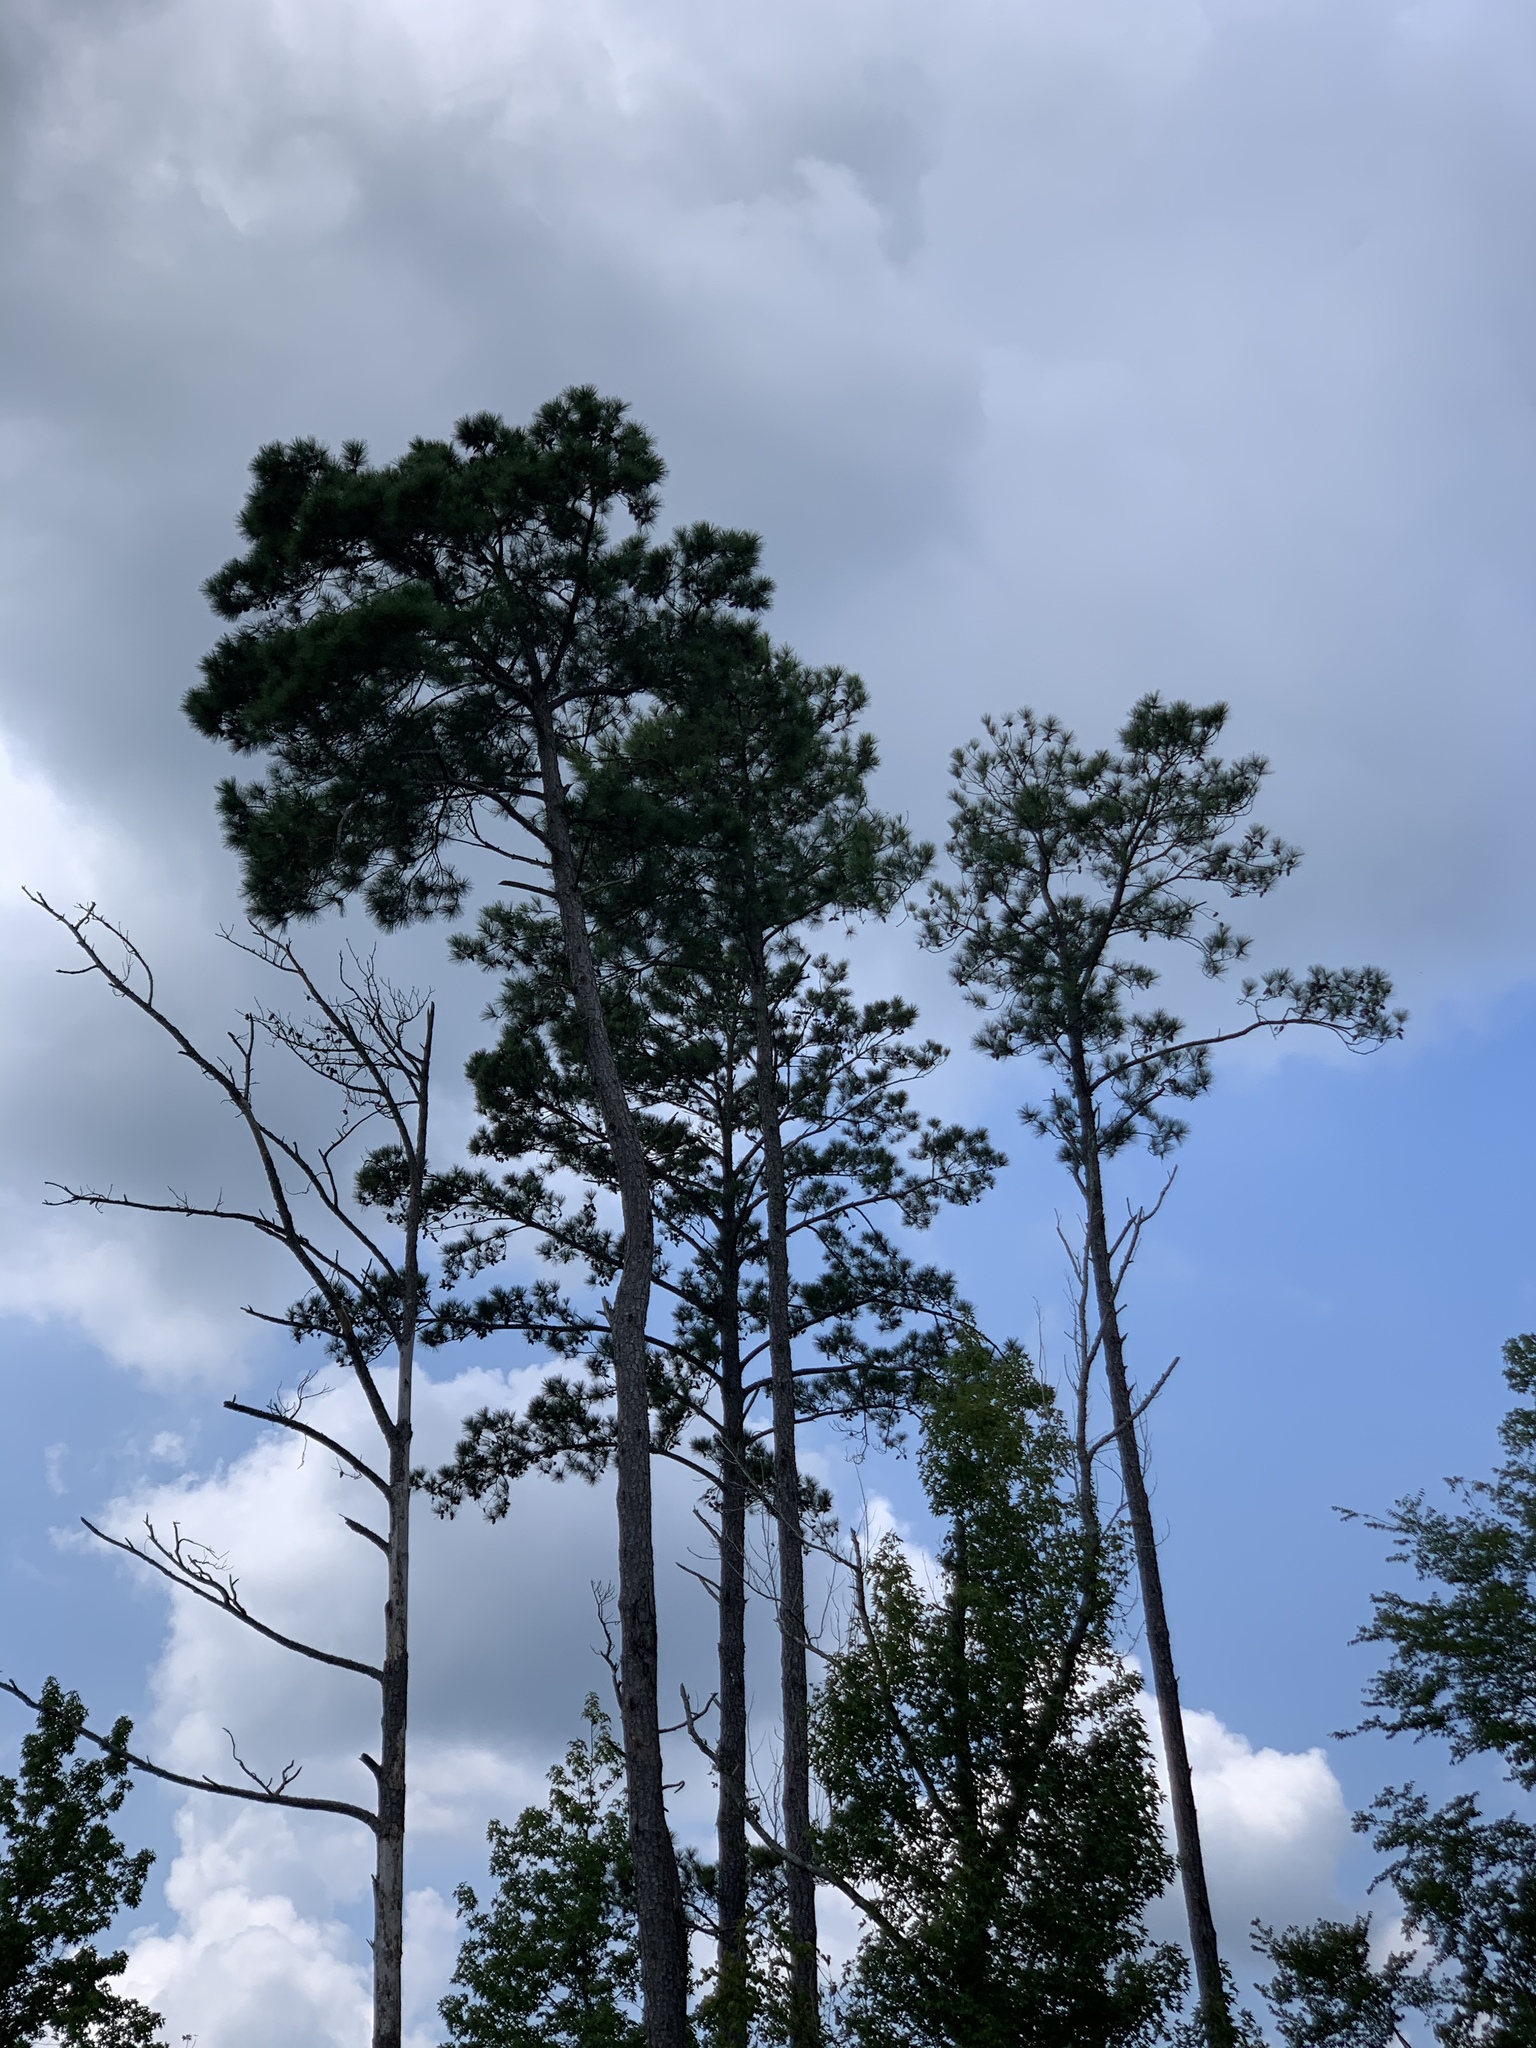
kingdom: Plantae
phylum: Tracheophyta
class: Pinopsida
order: Pinales
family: Pinaceae
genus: Pinus
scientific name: Pinus taeda
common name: Loblolly pine
